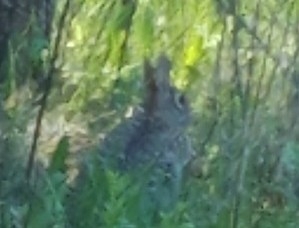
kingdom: Animalia
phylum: Chordata
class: Mammalia
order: Lagomorpha
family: Leporidae
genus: Sylvilagus
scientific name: Sylvilagus floridanus
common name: Eastern cottontail
